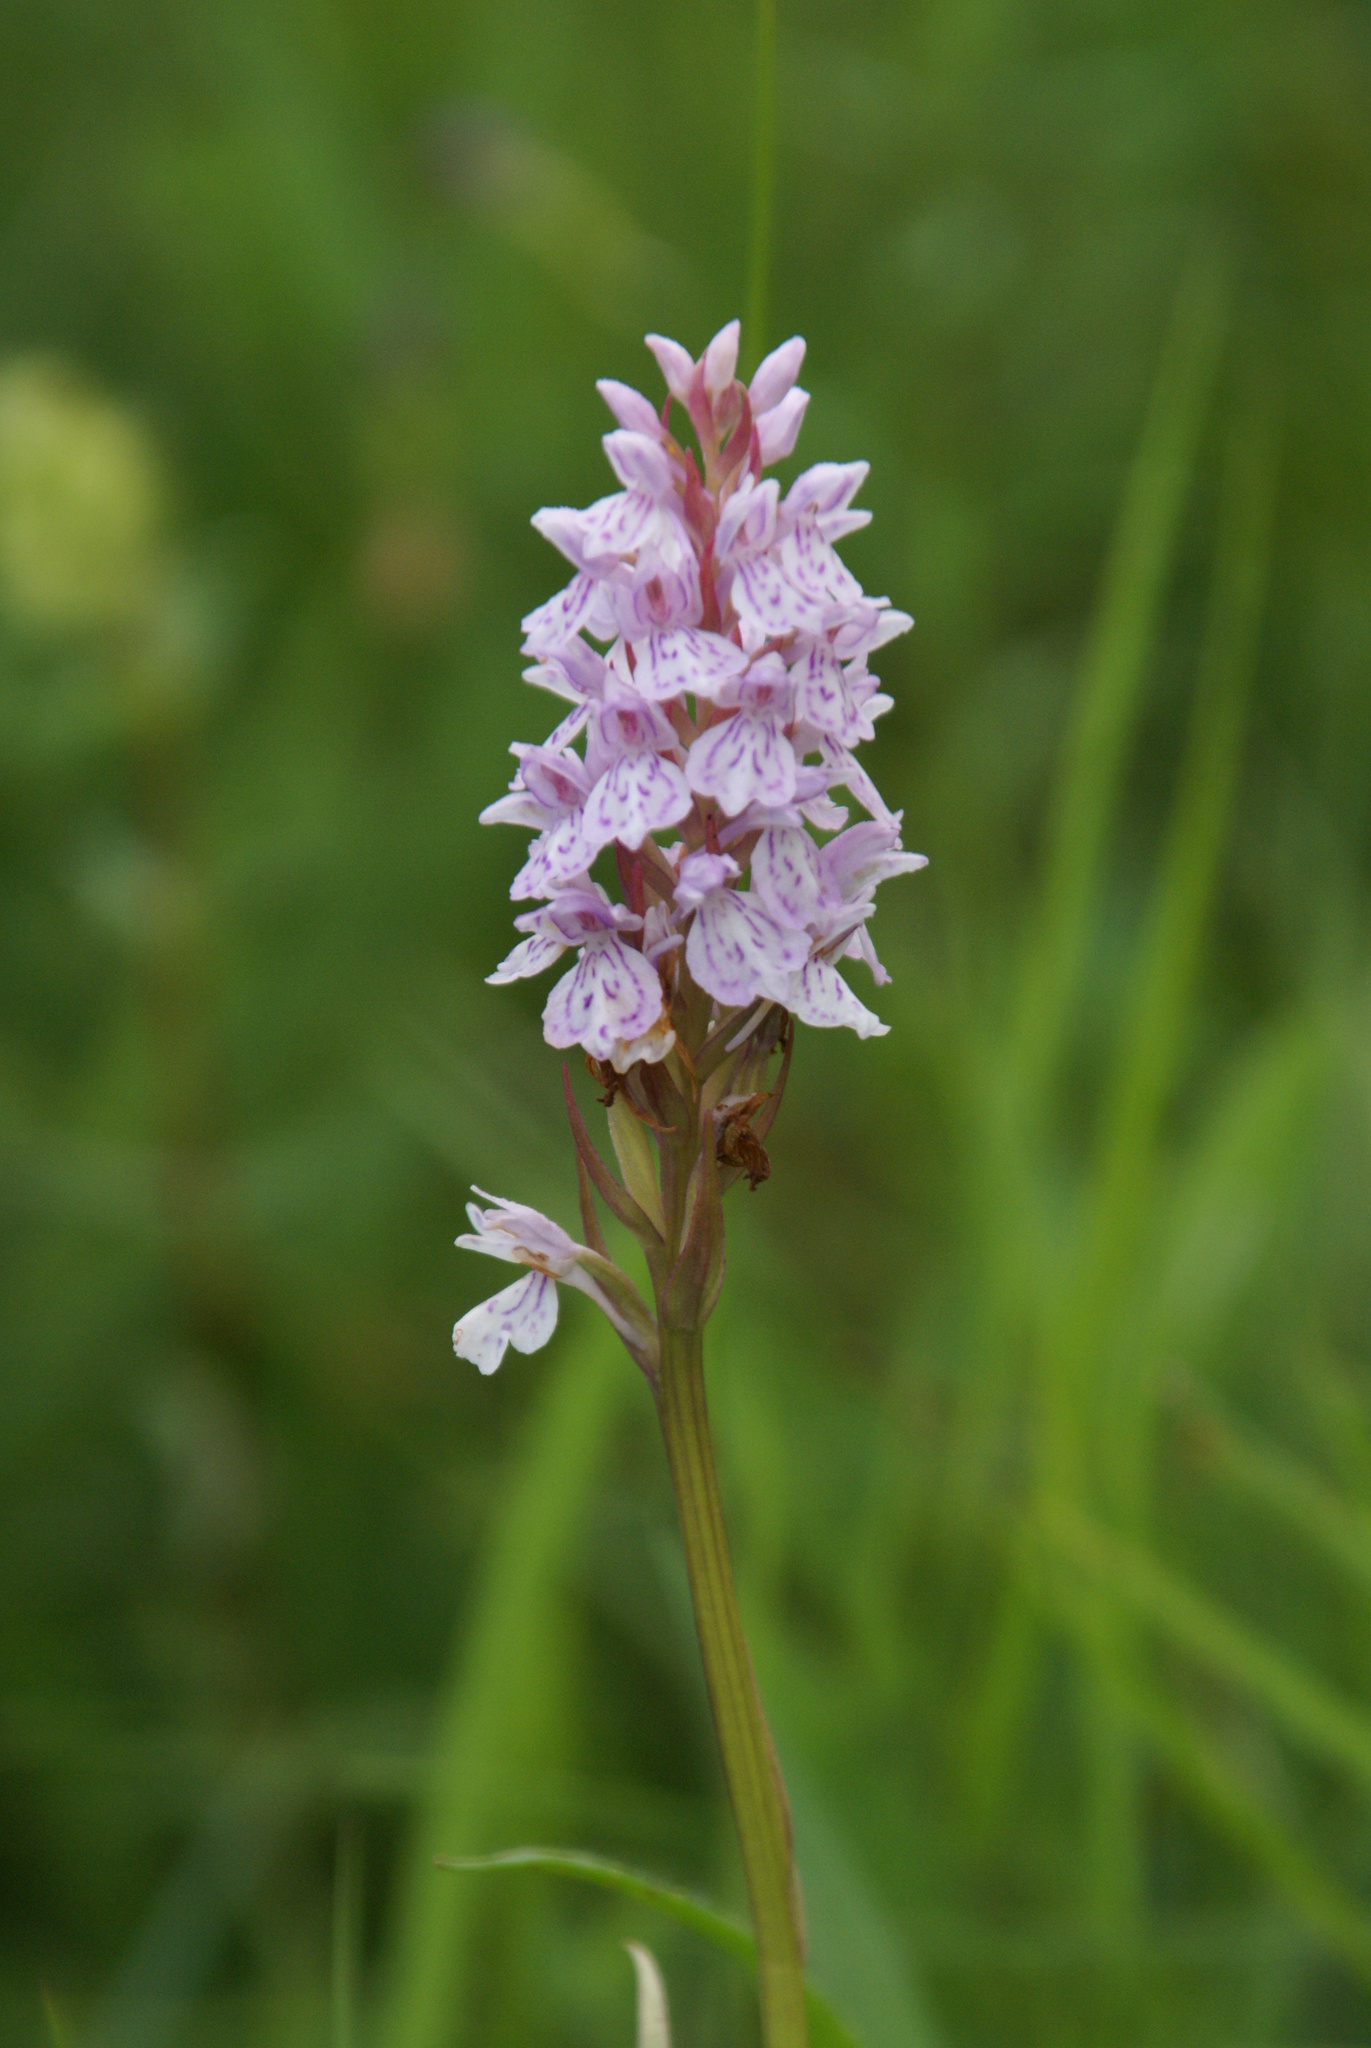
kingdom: Plantae
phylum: Tracheophyta
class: Liliopsida
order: Asparagales
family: Orchidaceae
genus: Dactylorhiza
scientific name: Dactylorhiza maculata
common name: Heath spotted-orchid
